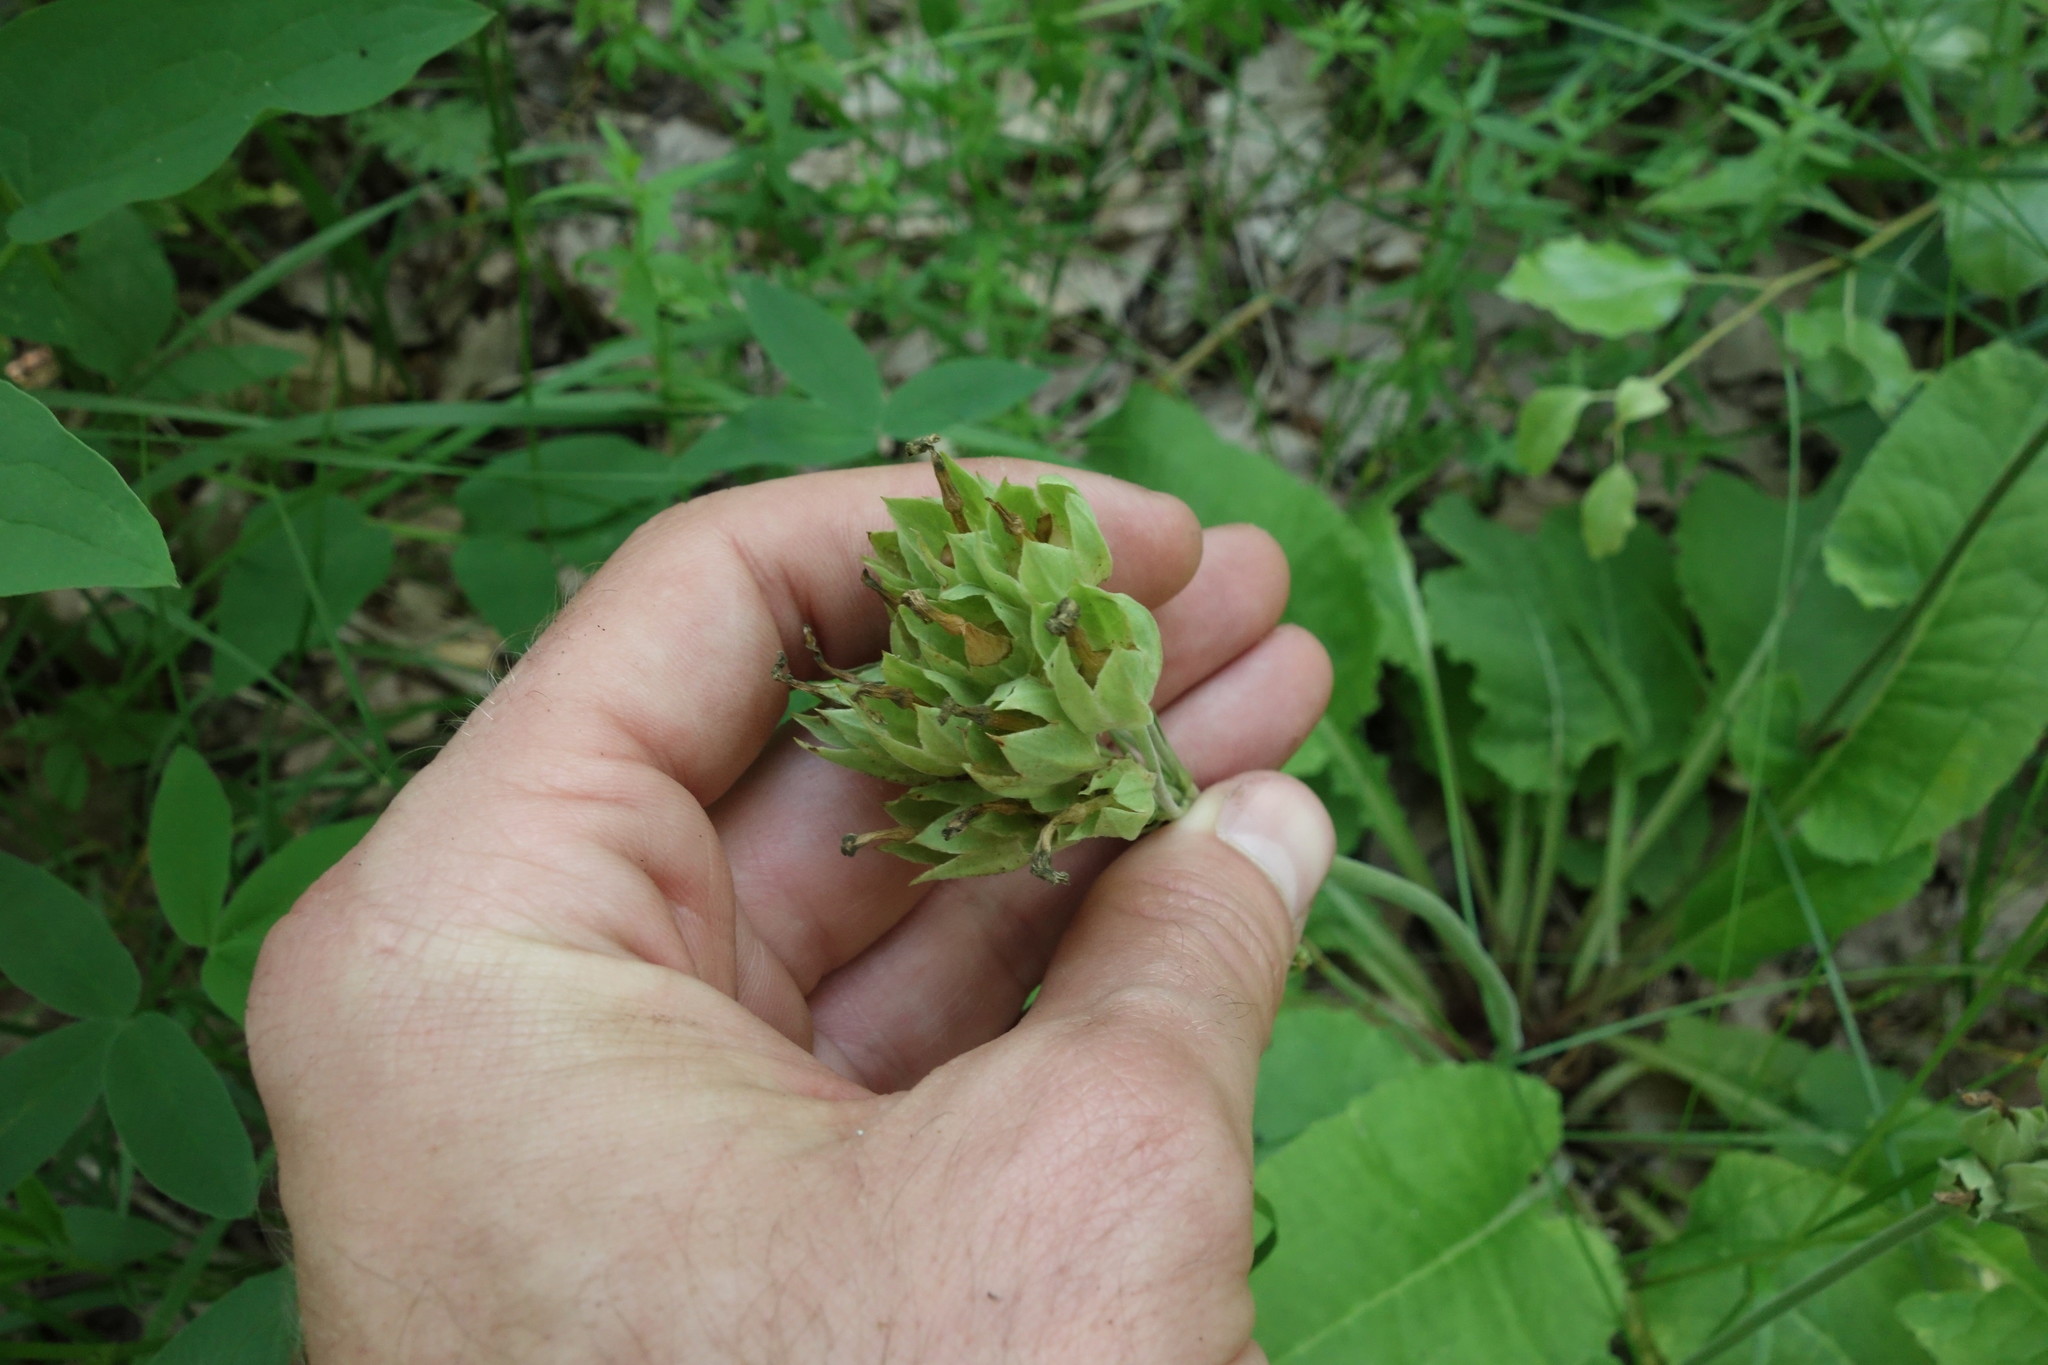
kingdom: Plantae
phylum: Tracheophyta
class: Magnoliopsida
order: Ericales
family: Primulaceae
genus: Primula
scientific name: Primula veris
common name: Cowslip
